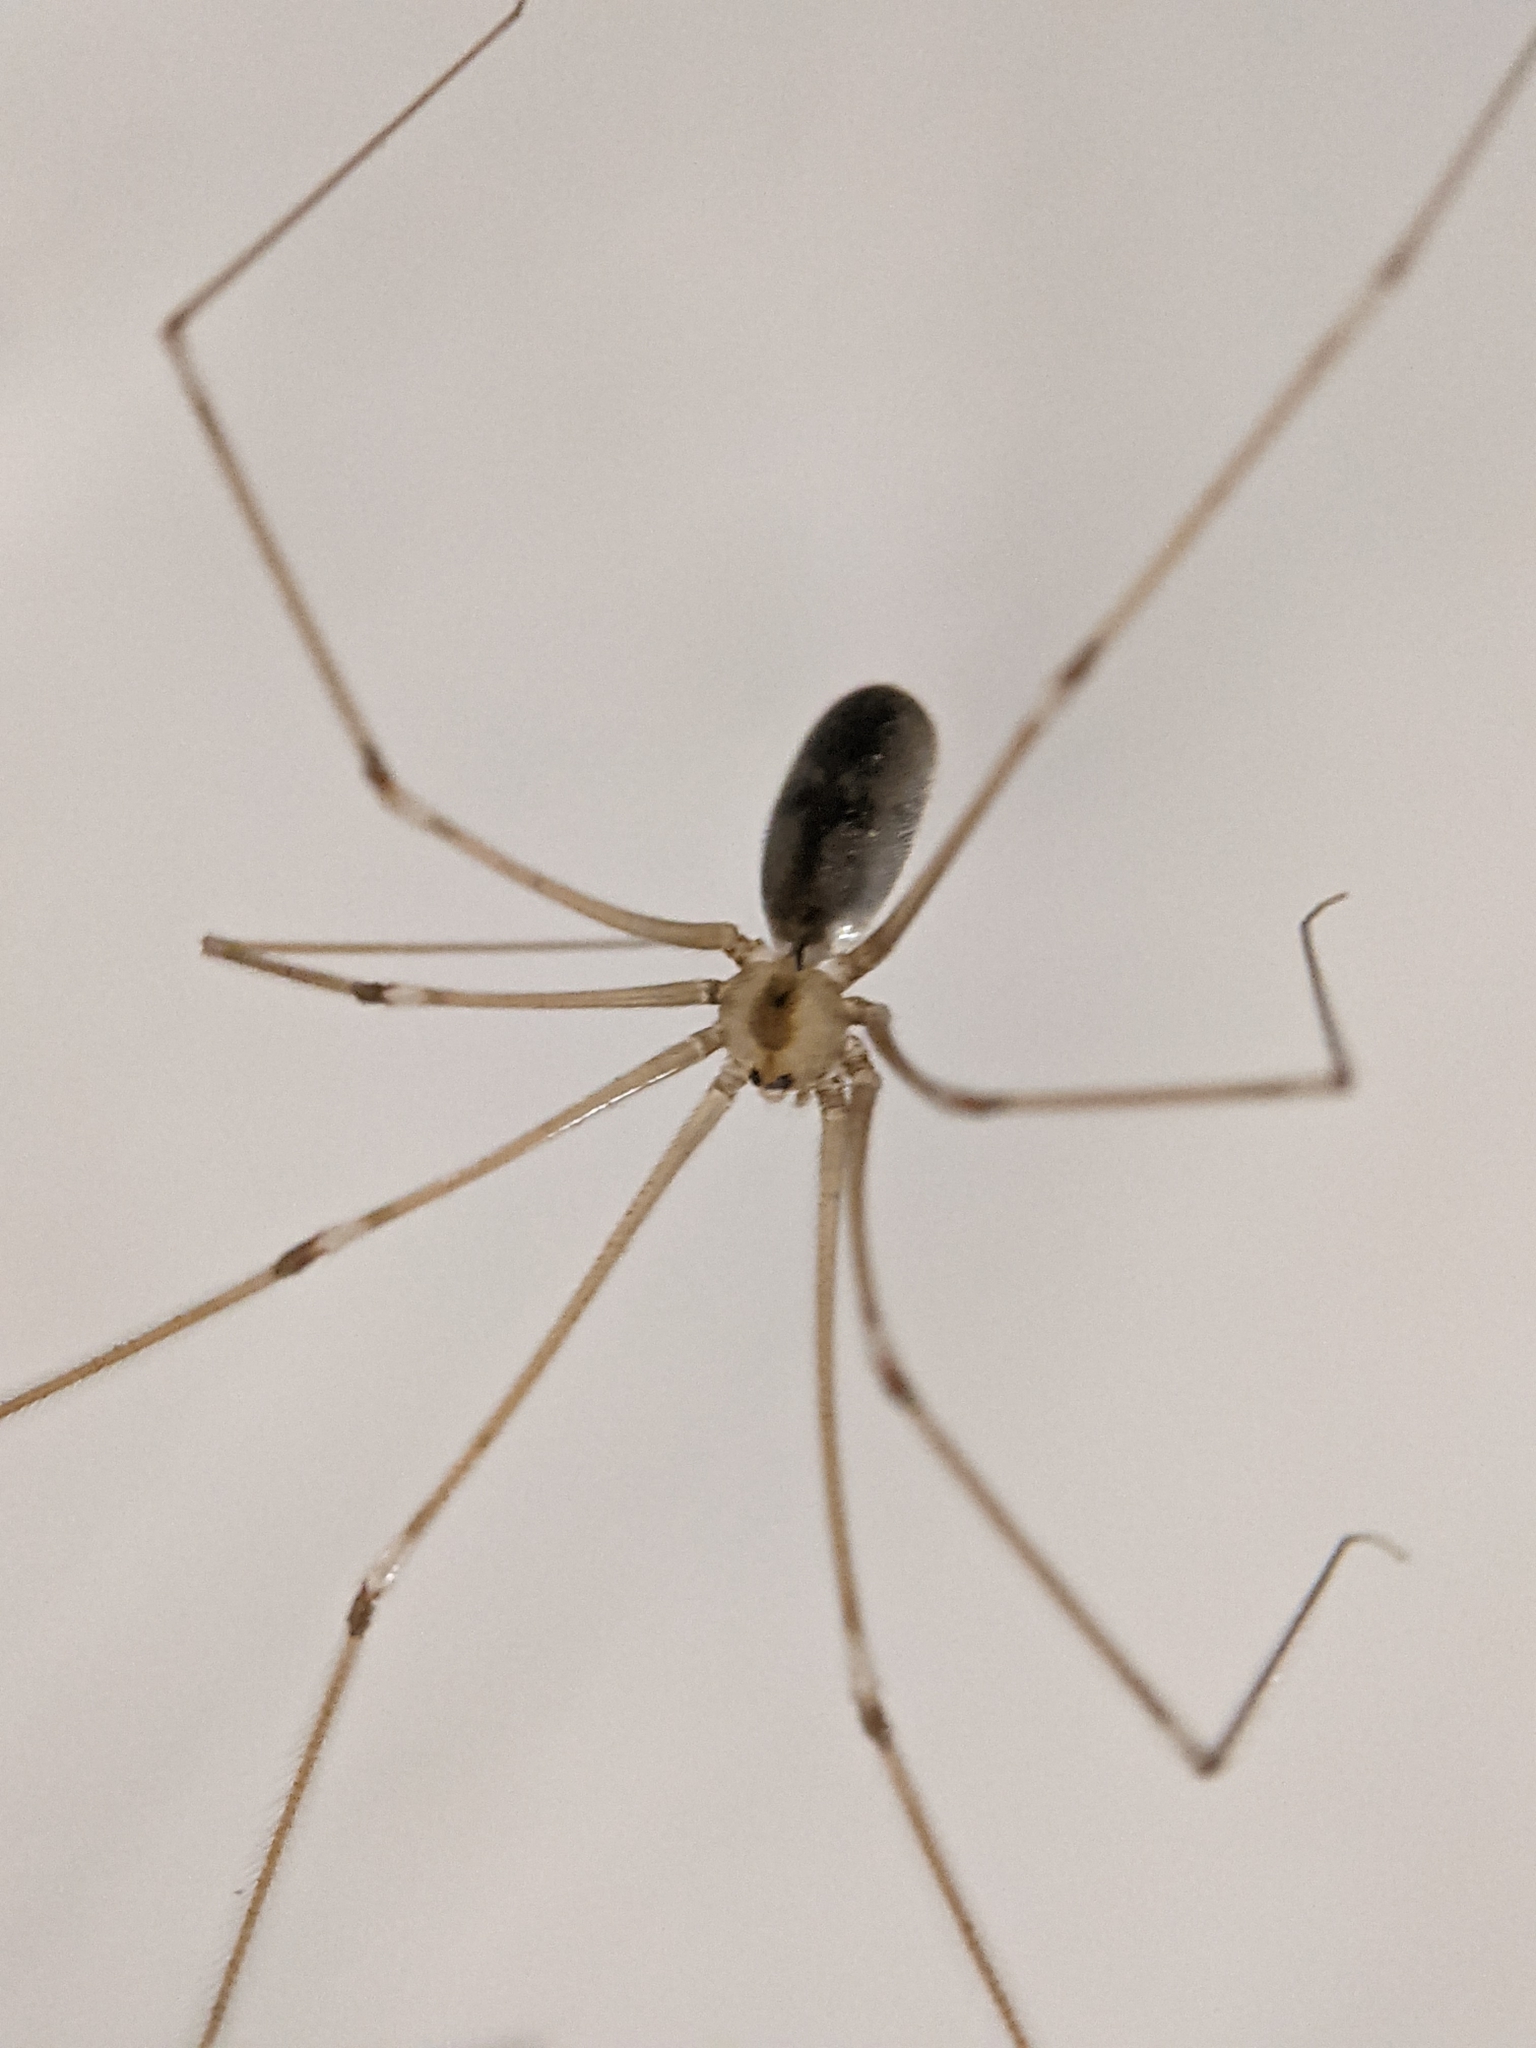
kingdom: Animalia
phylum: Arthropoda
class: Arachnida
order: Araneae
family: Pholcidae
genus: Pholcus
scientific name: Pholcus phalangioides
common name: Longbodied cellar spider
